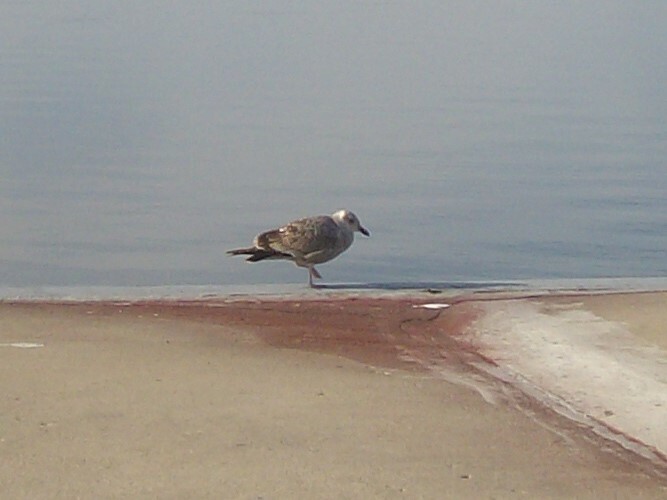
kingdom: Animalia
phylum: Chordata
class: Aves
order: Charadriiformes
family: Laridae
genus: Larus
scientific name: Larus marinus
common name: Great black-backed gull
